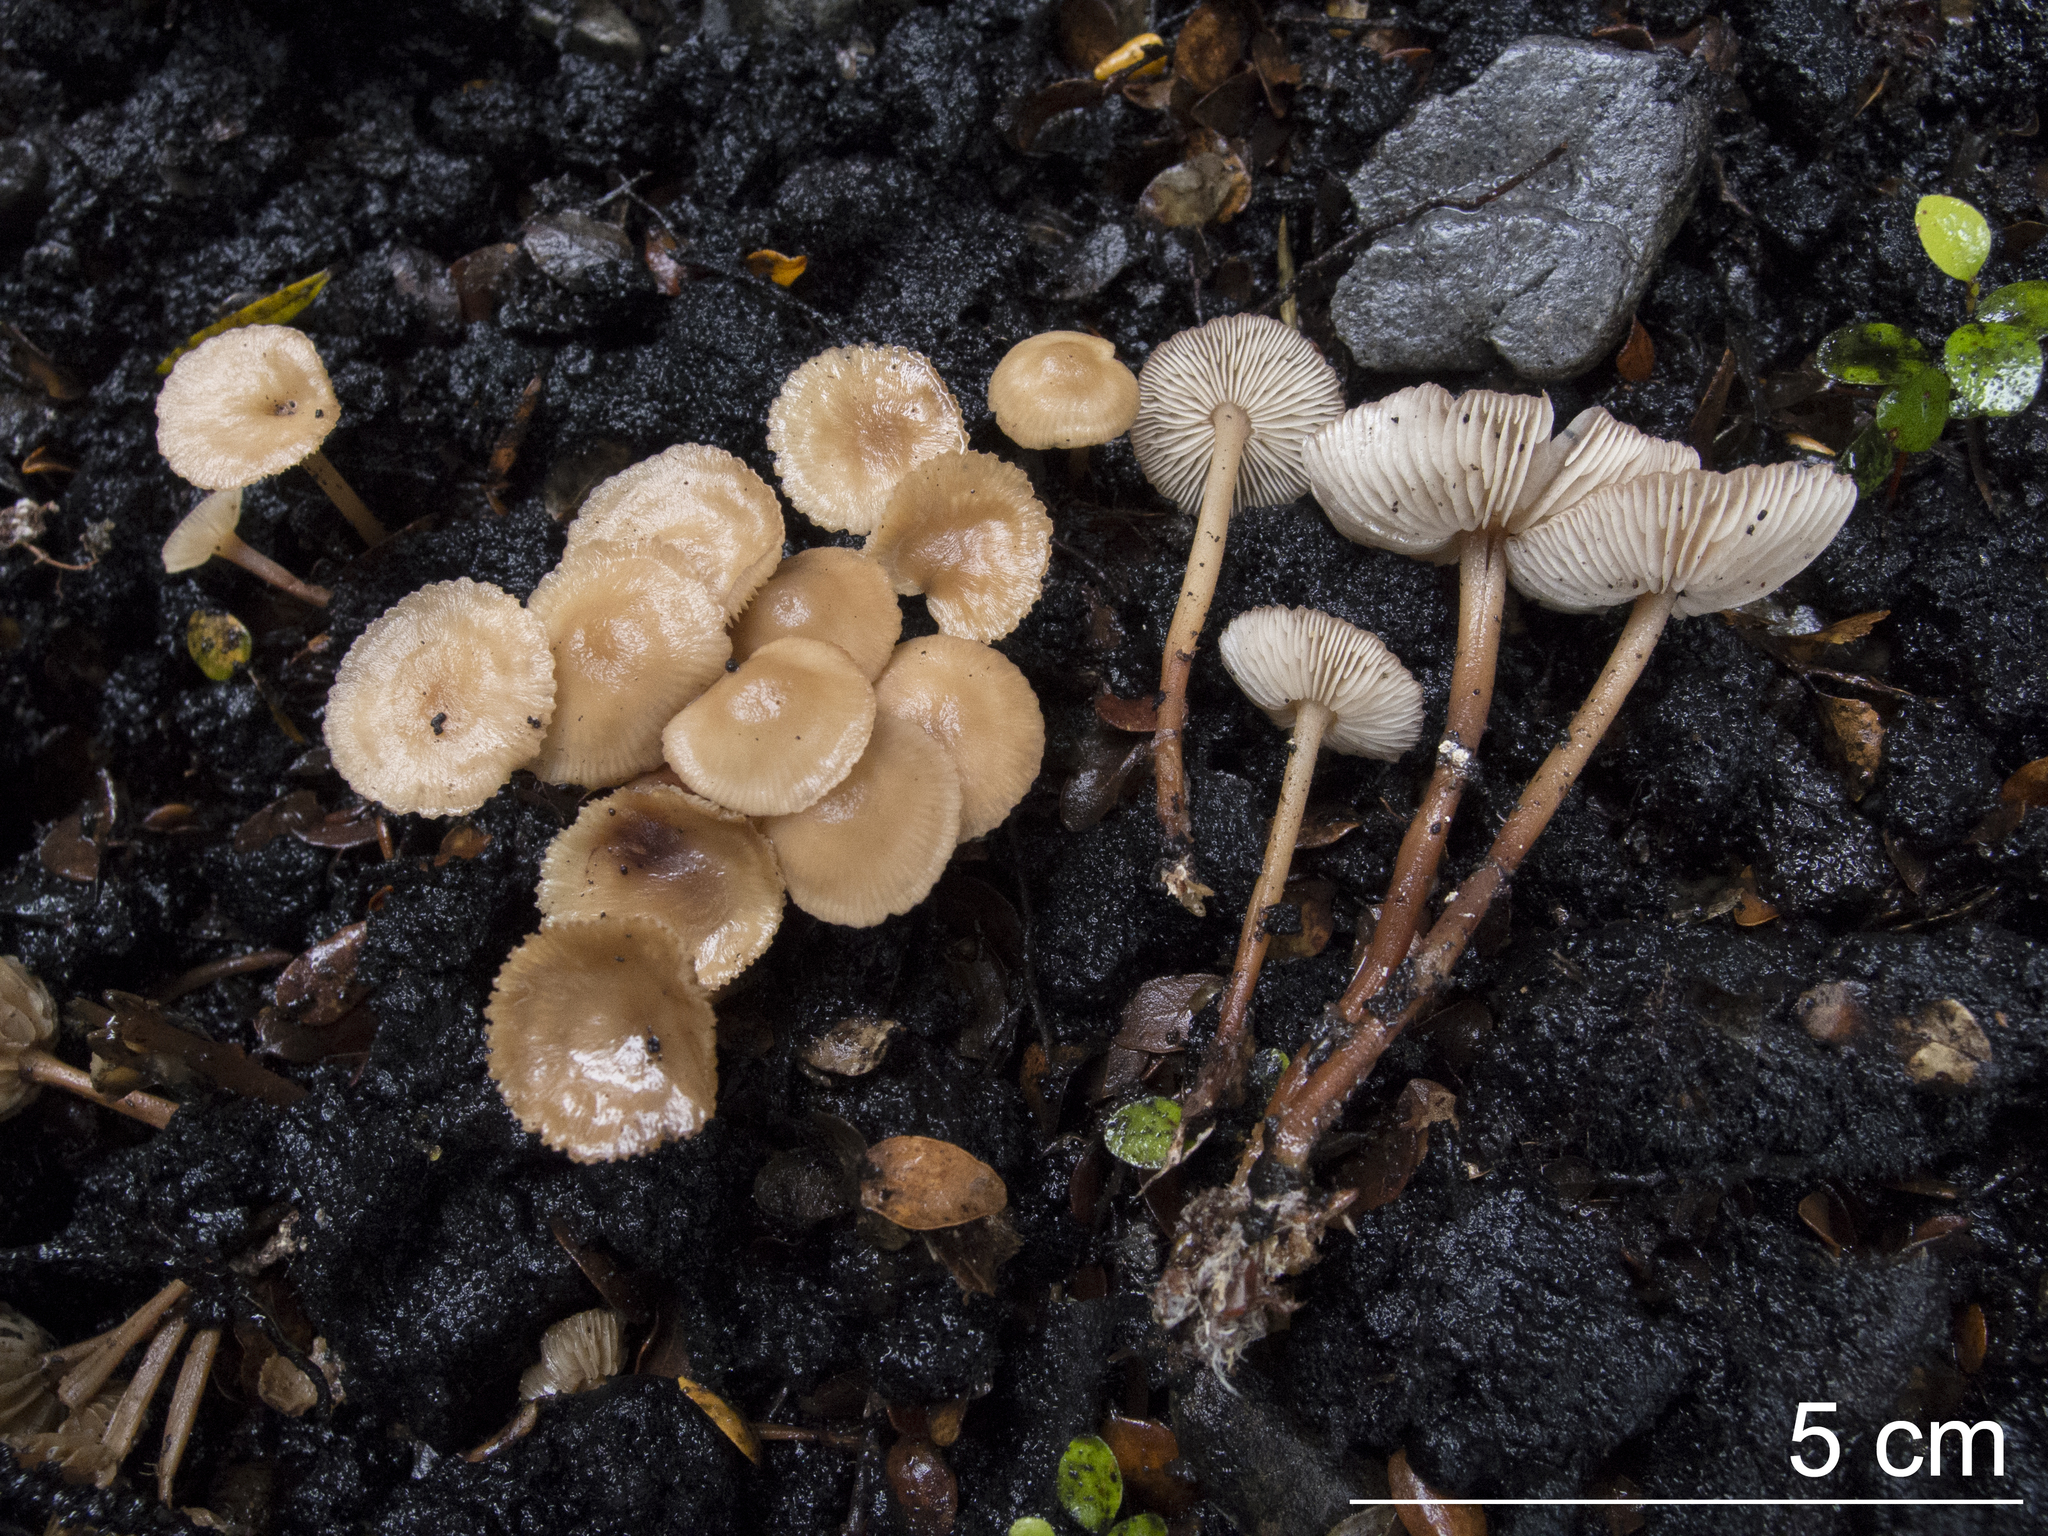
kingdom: Fungi
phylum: Basidiomycota
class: Agaricomycetes
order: Agaricales
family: Omphalotaceae
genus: Collybiopsis
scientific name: Collybiopsis rimutaka
